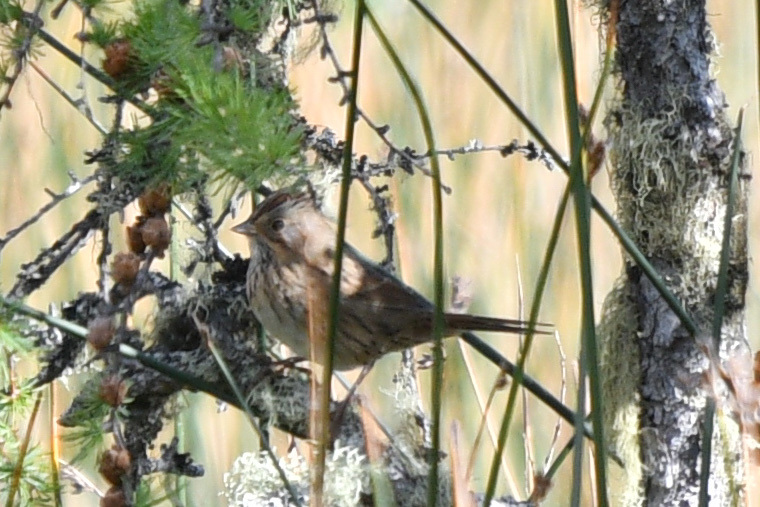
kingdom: Animalia
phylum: Chordata
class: Aves
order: Passeriformes
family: Passerellidae
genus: Melospiza
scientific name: Melospiza lincolnii
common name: Lincoln's sparrow
